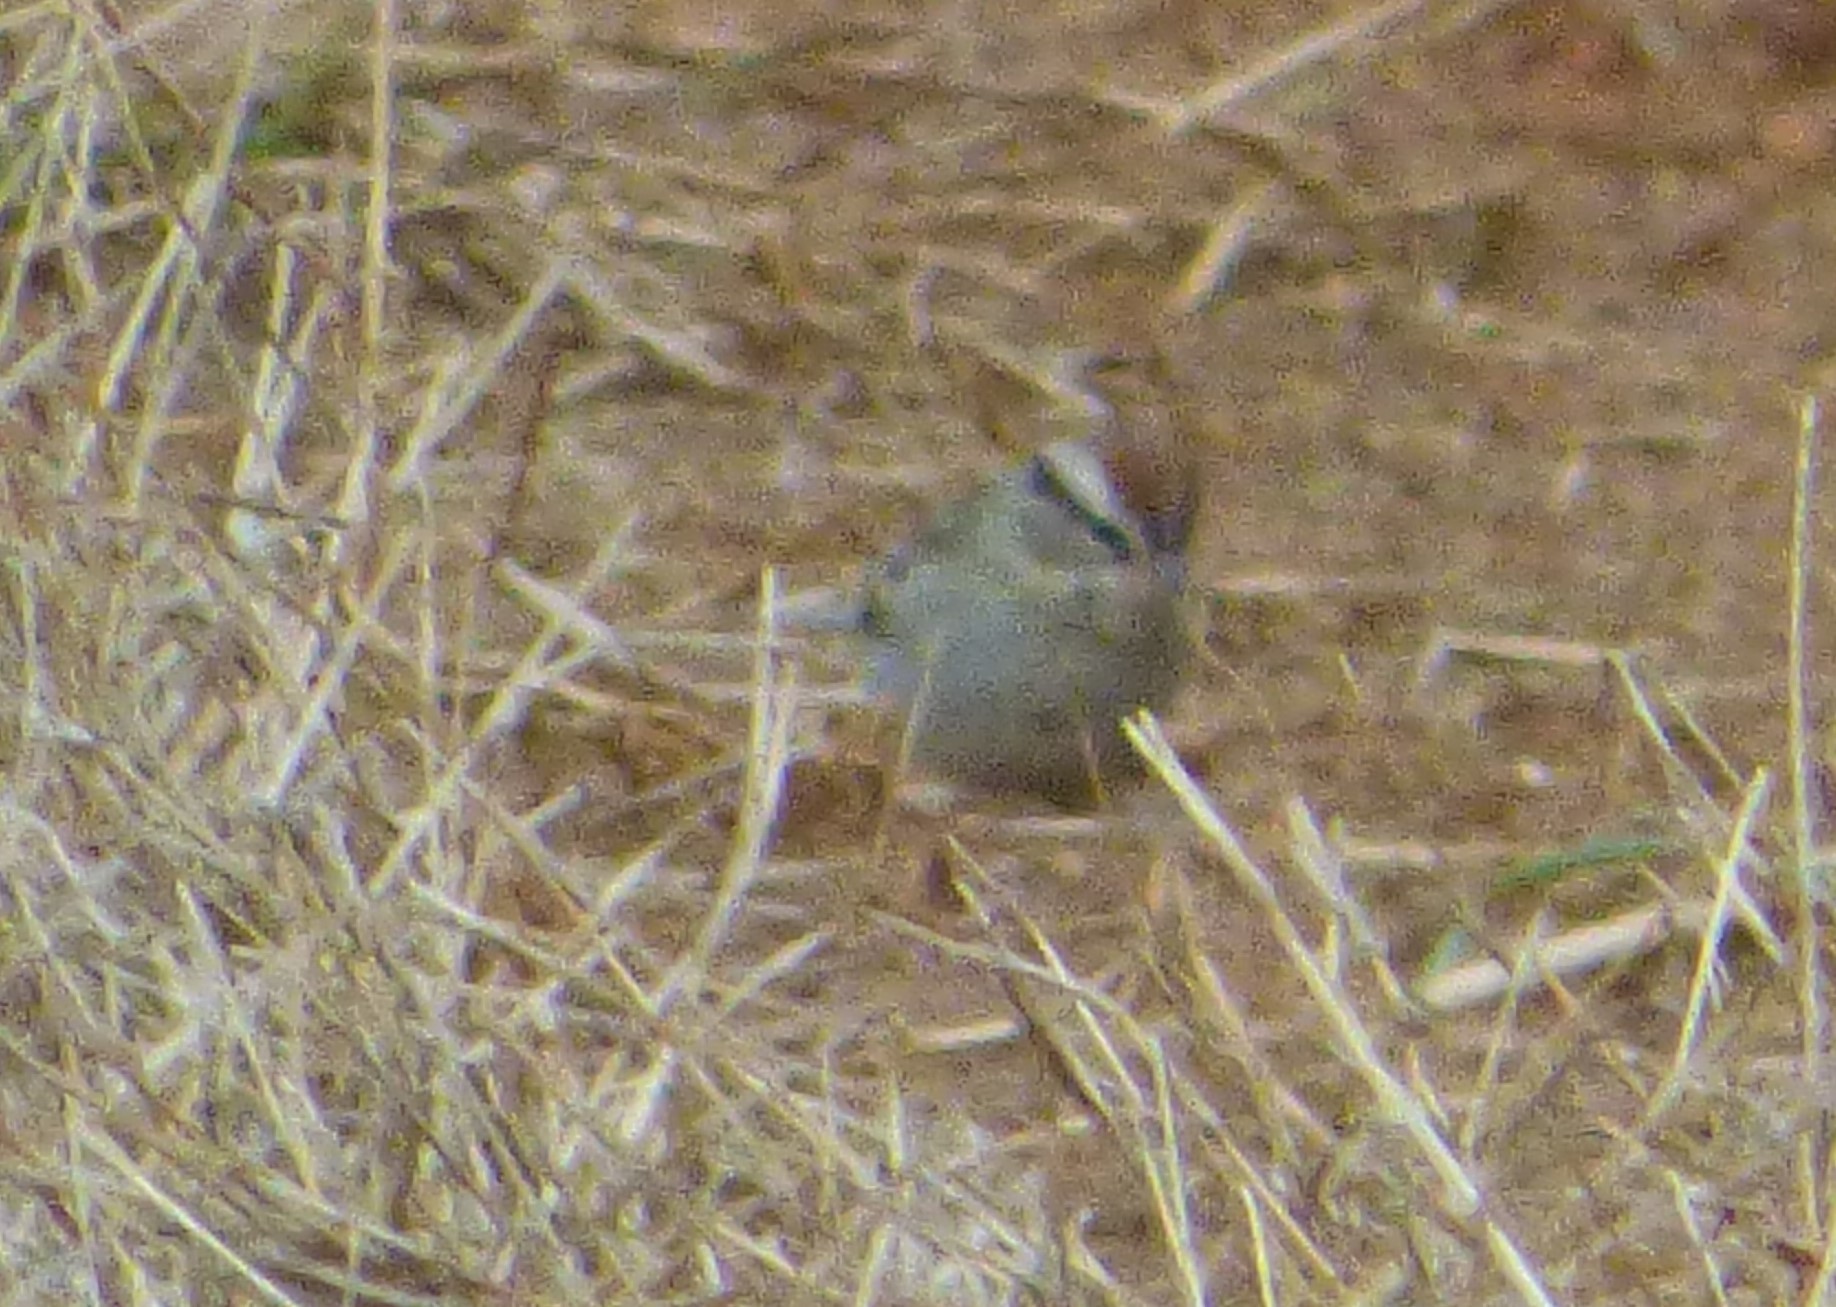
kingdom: Animalia
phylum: Chordata
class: Aves
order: Passeriformes
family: Passerellidae
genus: Spizella
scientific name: Spizella passerina
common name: Chipping sparrow
